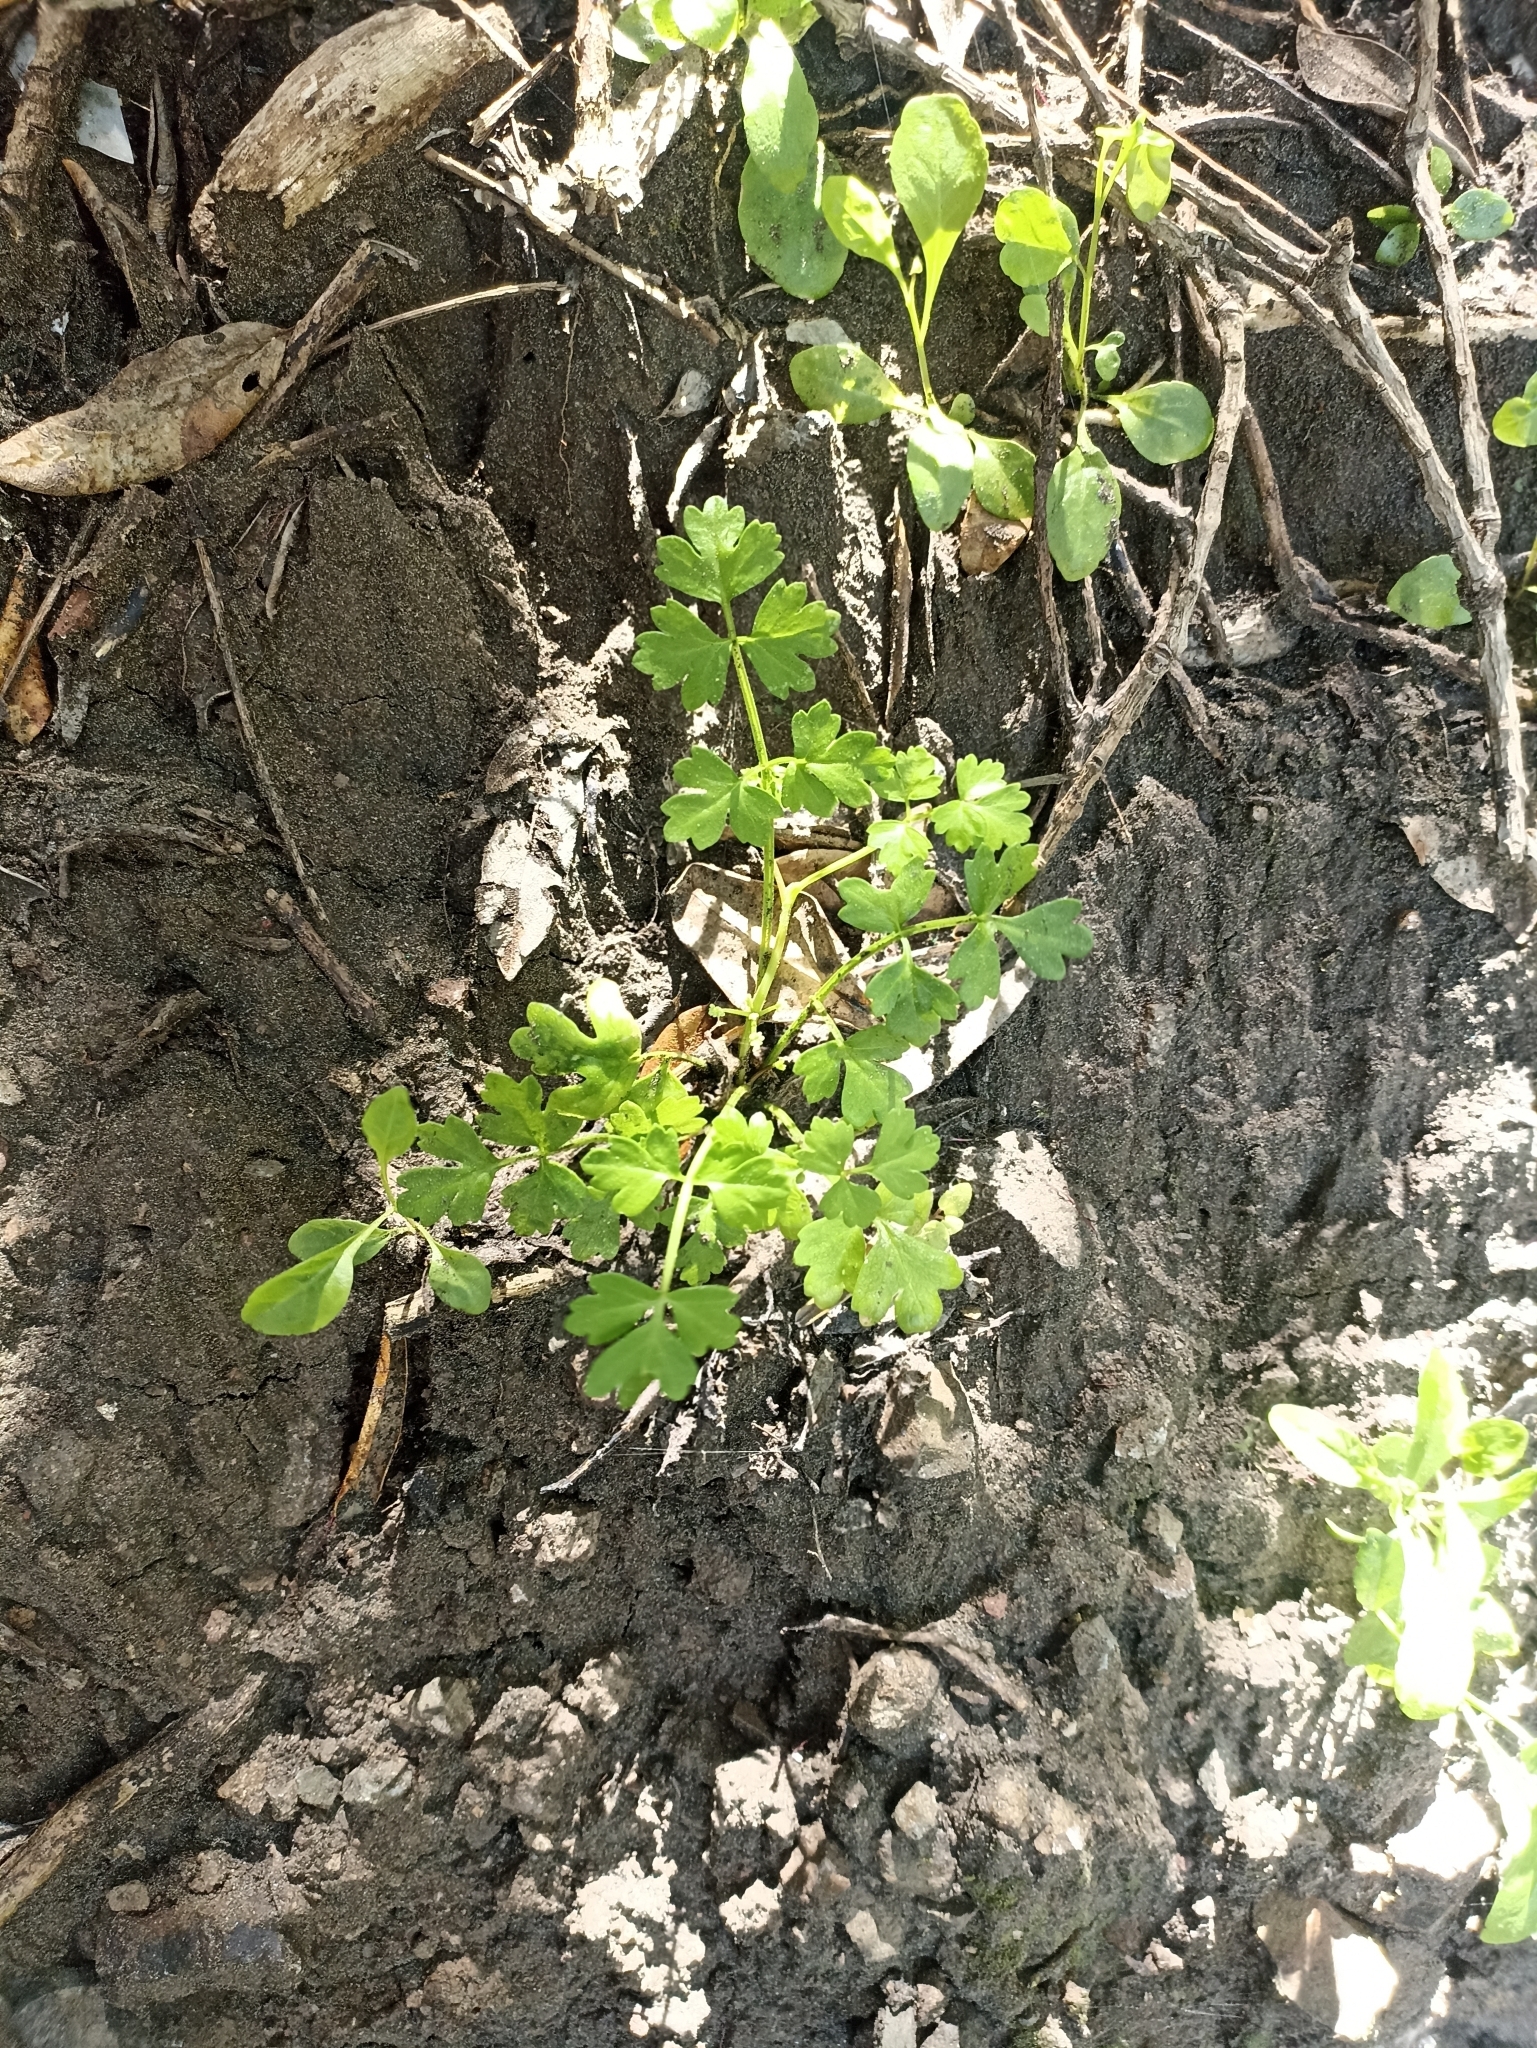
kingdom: Plantae
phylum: Tracheophyta
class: Magnoliopsida
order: Apiales
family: Apiaceae
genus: Apium
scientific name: Apium prostratum
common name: Prostrate marshwort
